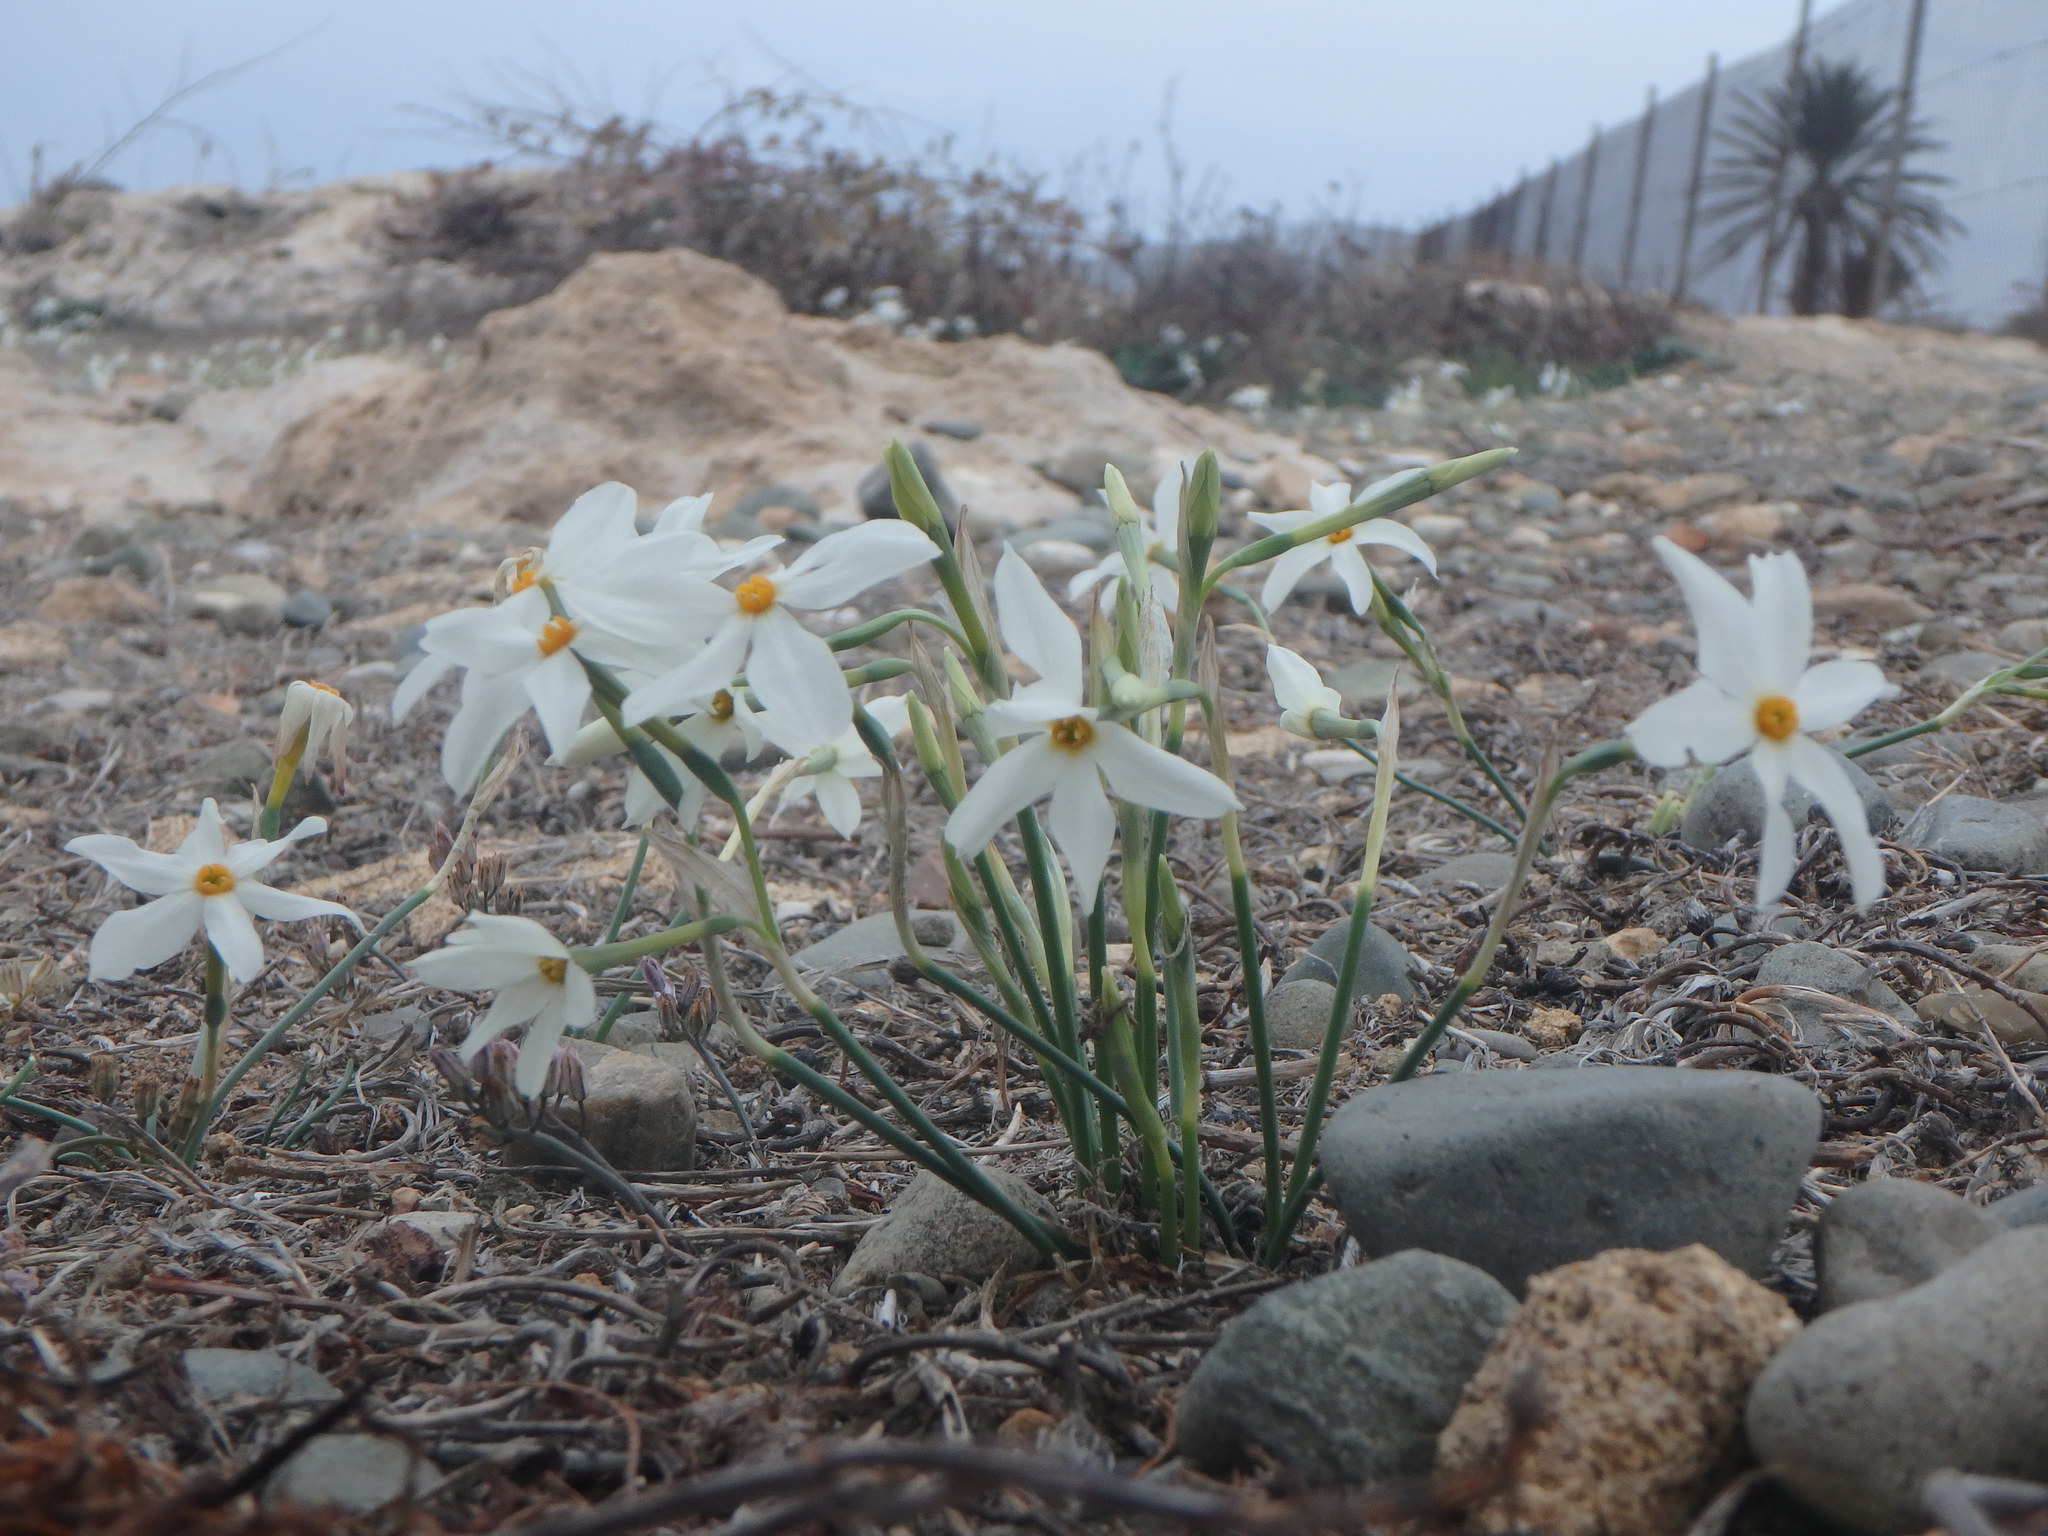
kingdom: Plantae
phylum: Tracheophyta
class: Liliopsida
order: Asparagales
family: Amaryllidaceae
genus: Narcissus
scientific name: Narcissus deficiens
